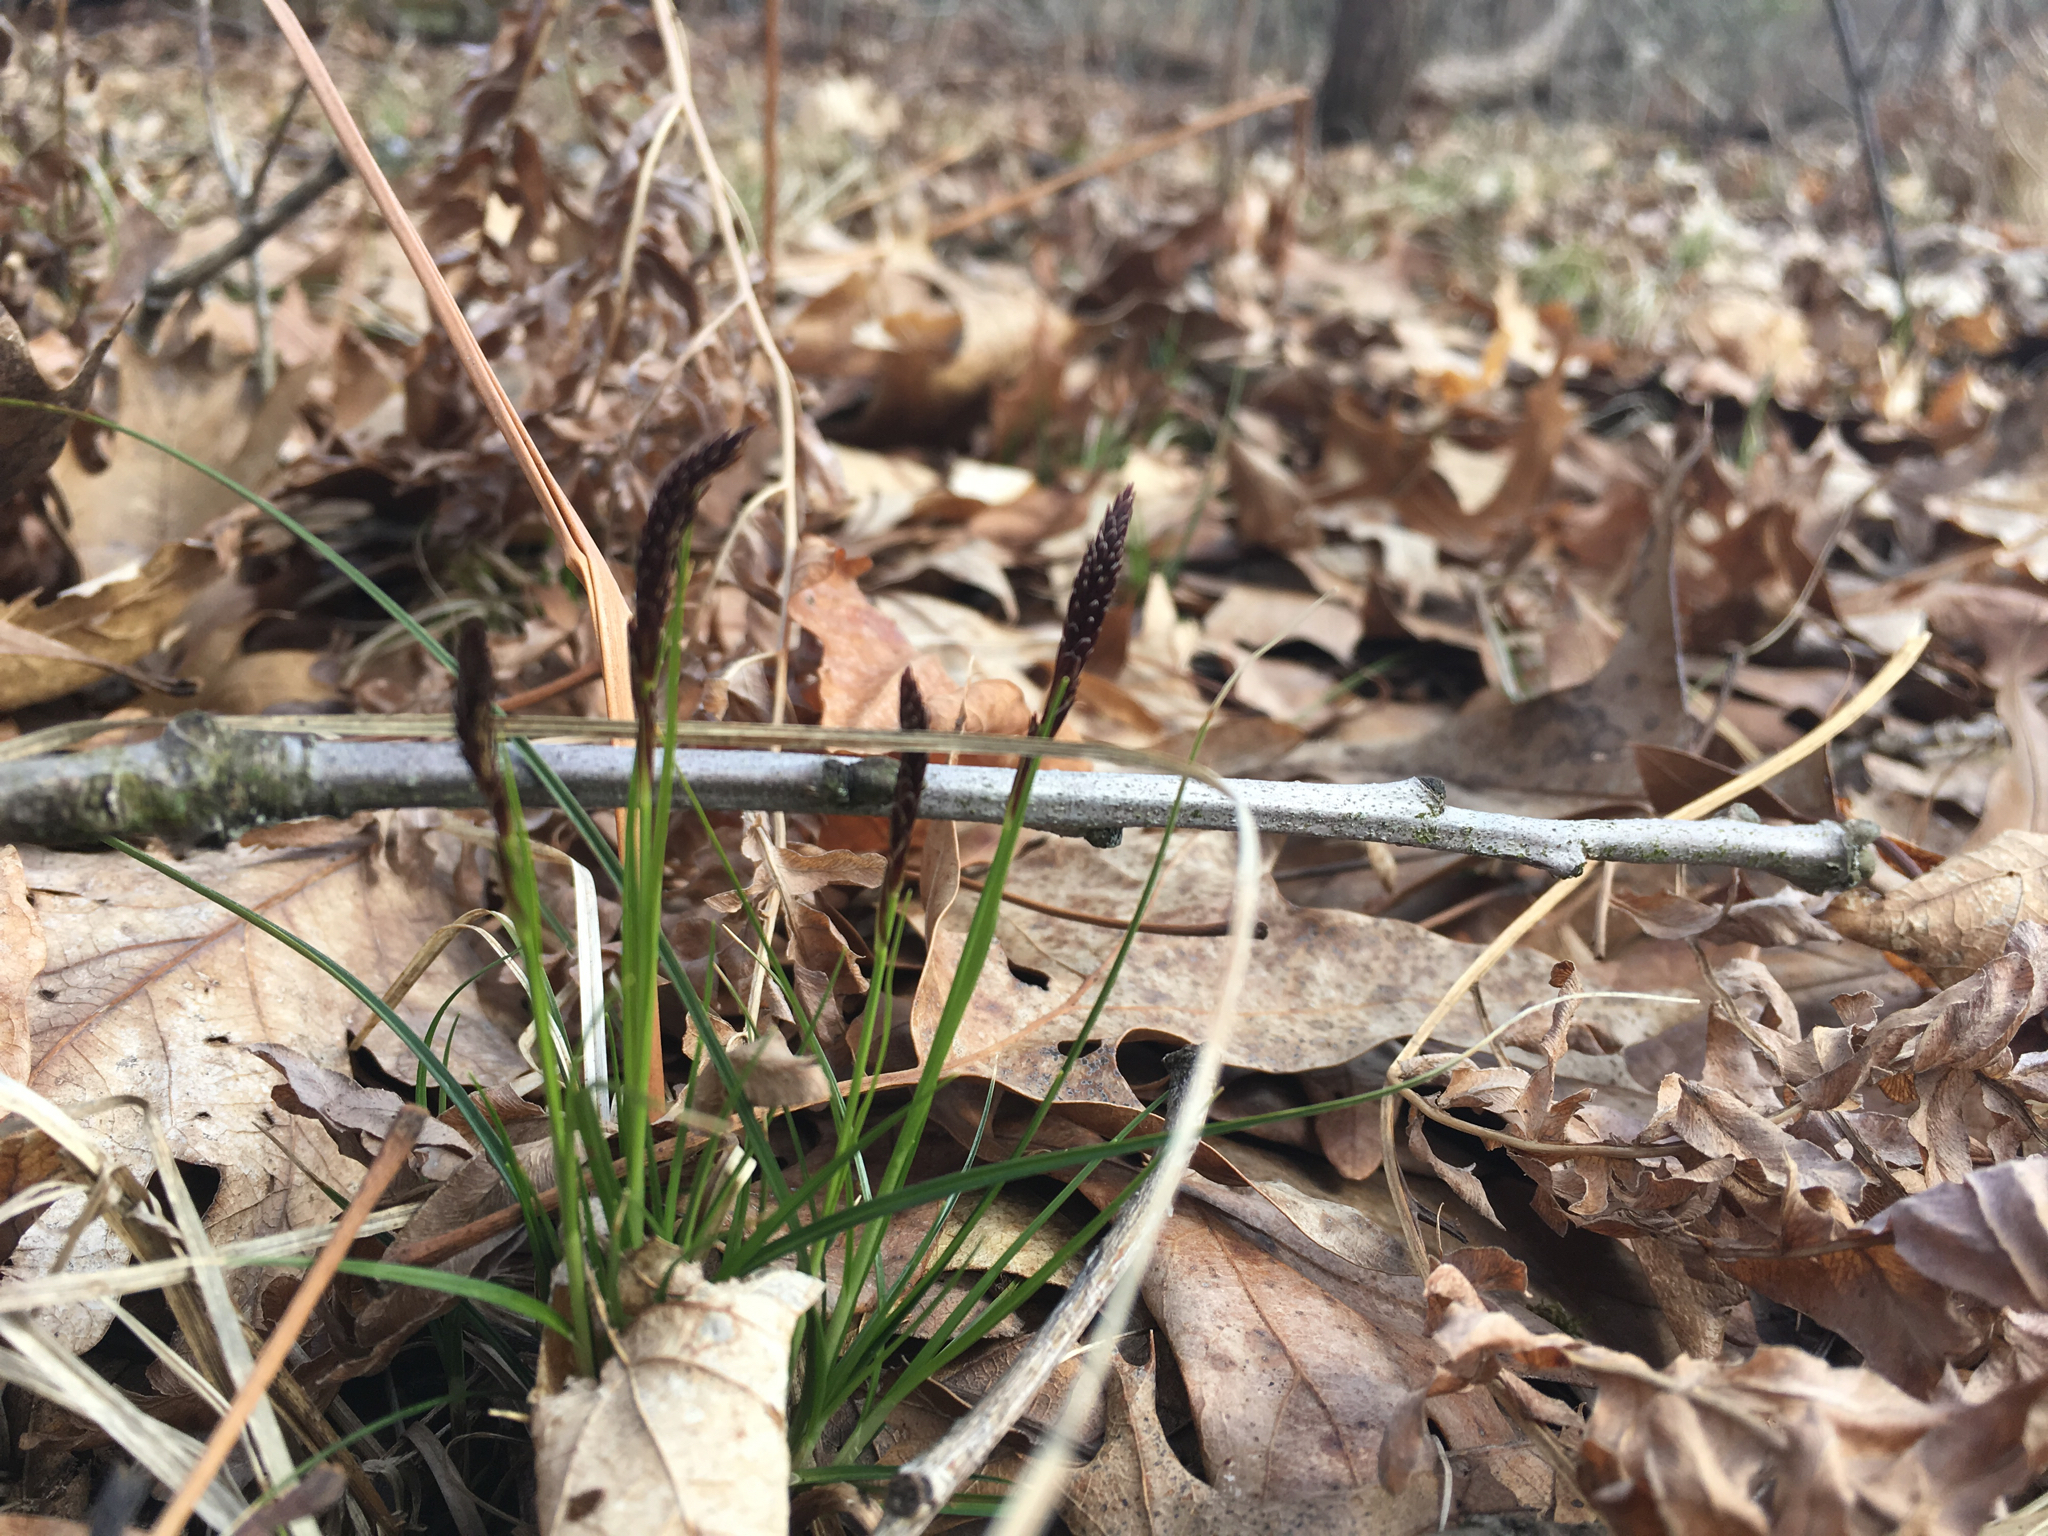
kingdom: Plantae
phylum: Tracheophyta
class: Liliopsida
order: Poales
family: Cyperaceae
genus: Carex
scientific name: Carex pensylvanica
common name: Common oak sedge
